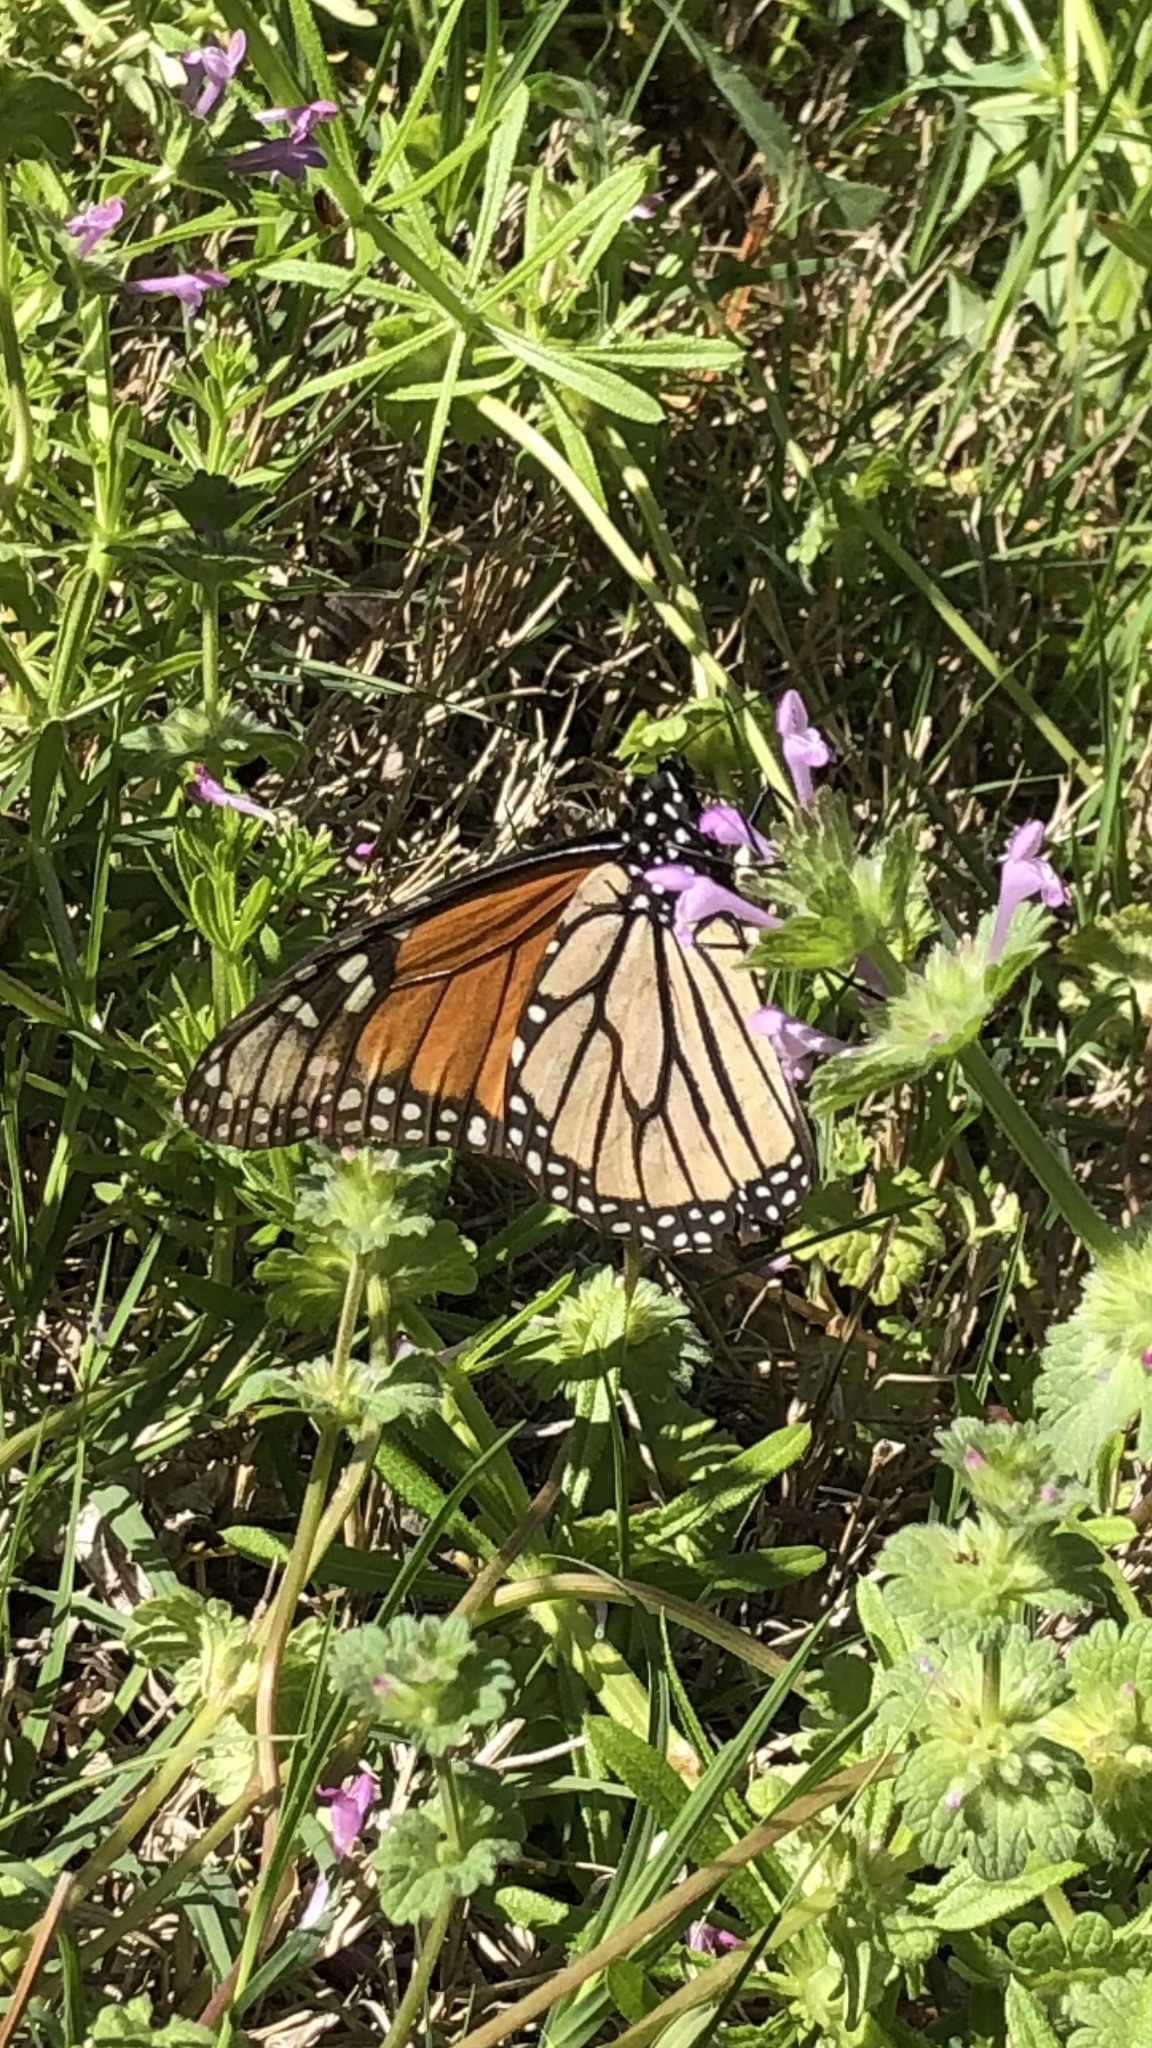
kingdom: Animalia
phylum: Arthropoda
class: Insecta
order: Lepidoptera
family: Nymphalidae
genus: Danaus
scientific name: Danaus plexippus
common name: Monarch
